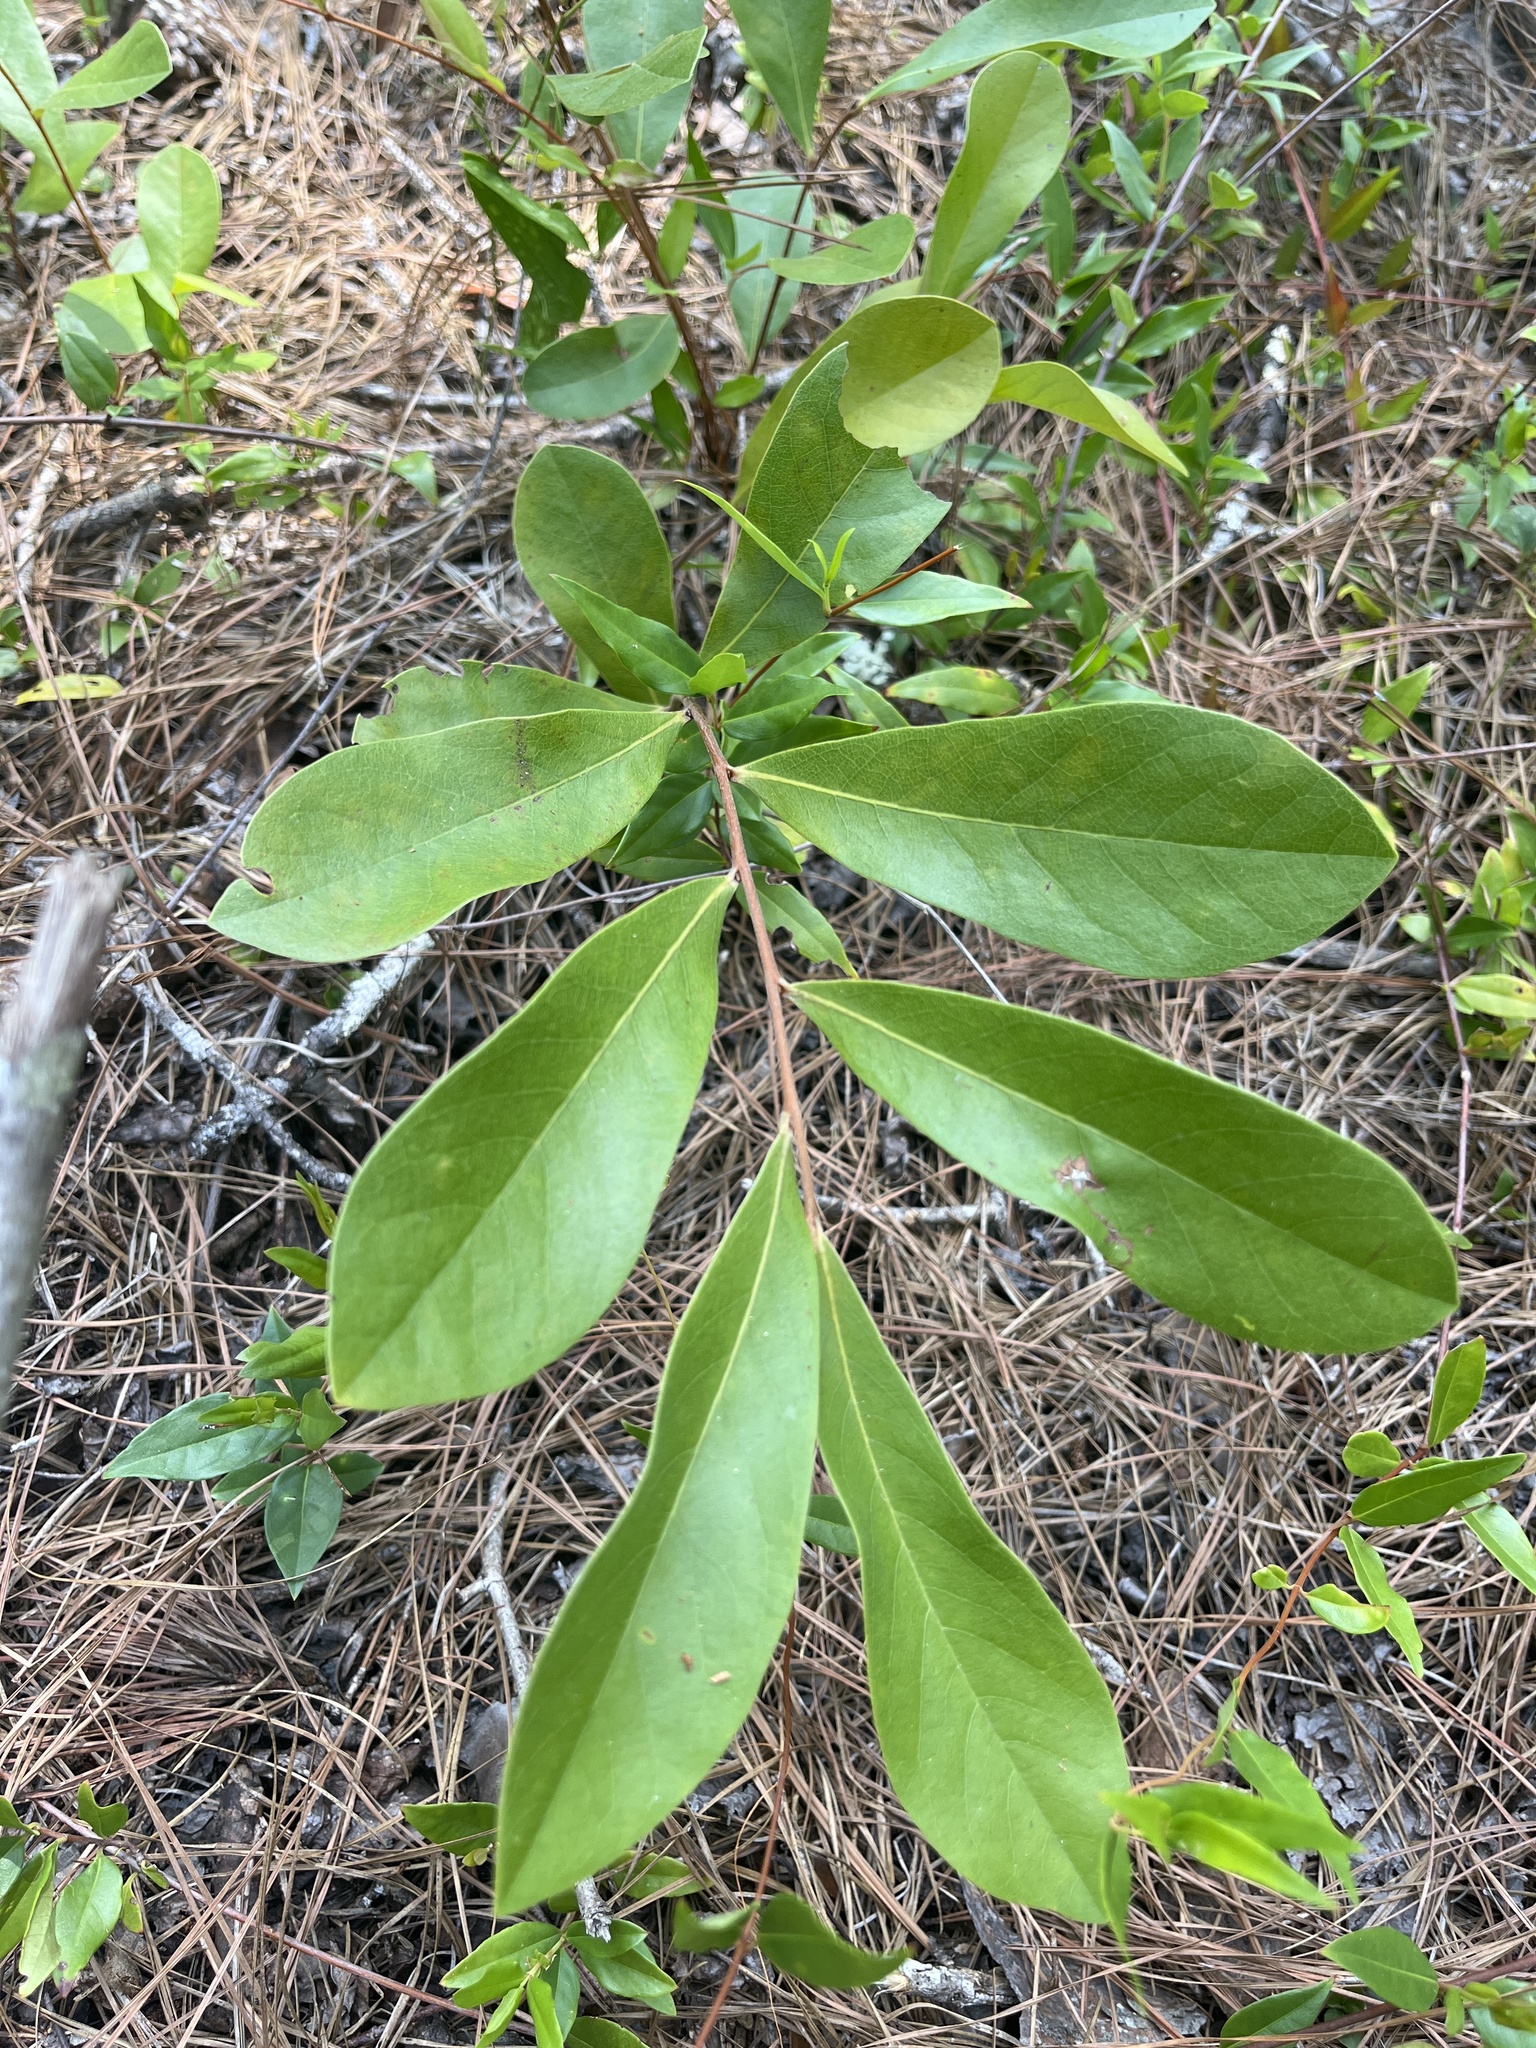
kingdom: Plantae
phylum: Tracheophyta
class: Magnoliopsida
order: Magnoliales
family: Annonaceae
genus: Asimina
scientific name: Asimina obovata
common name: Flag pawpaw
